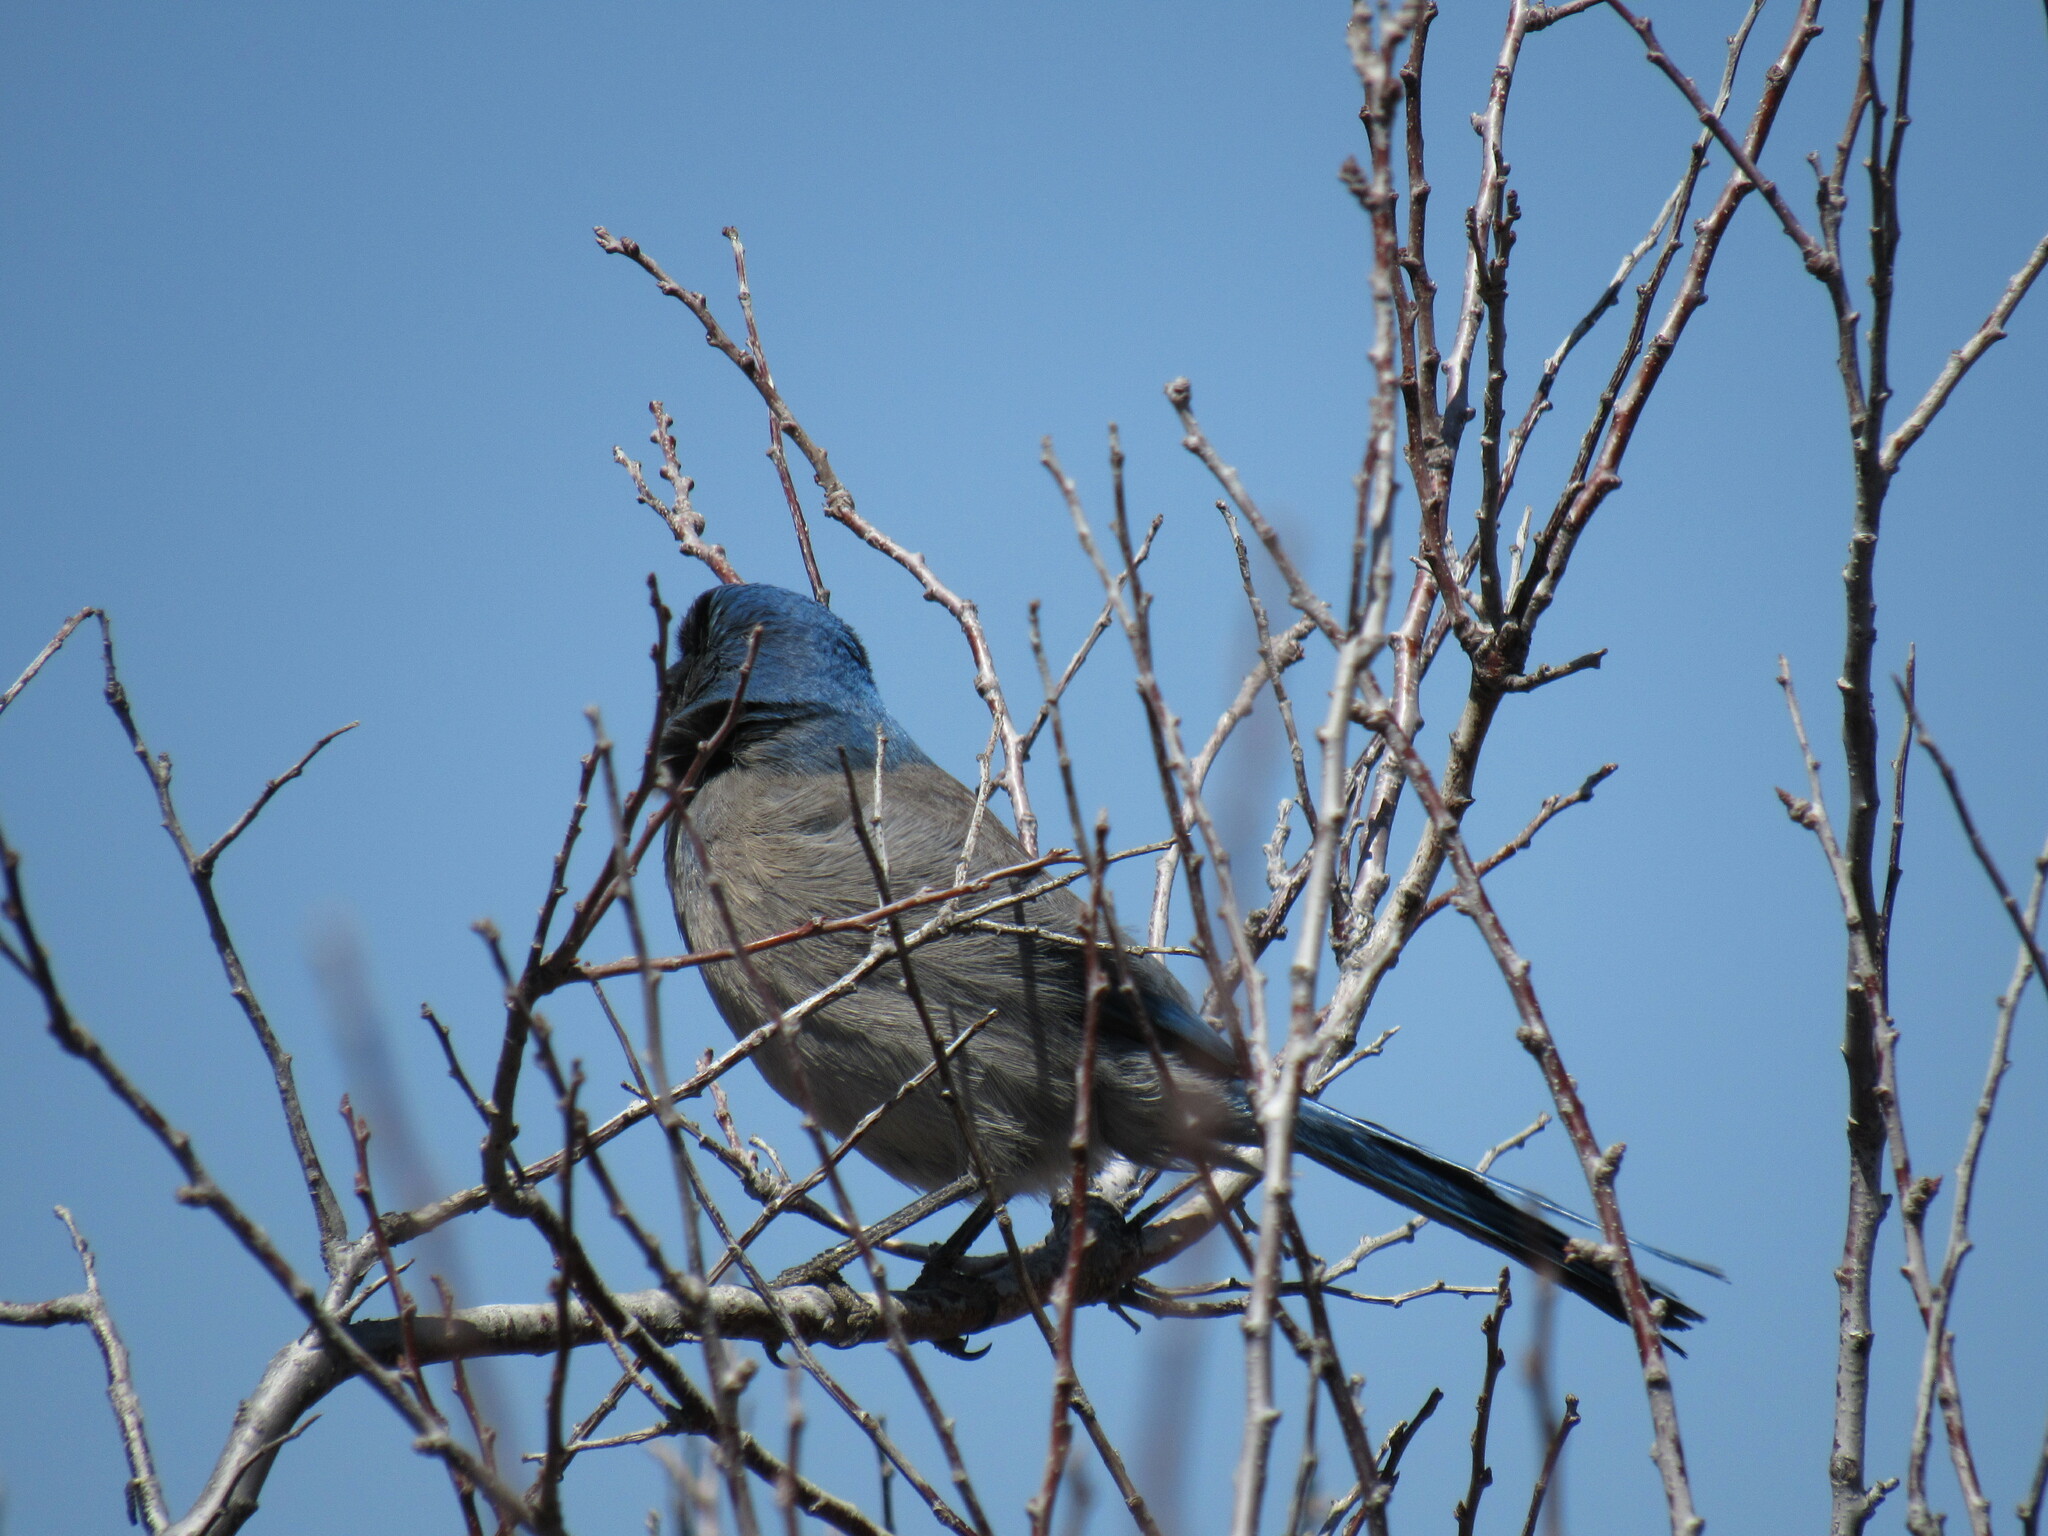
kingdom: Animalia
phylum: Chordata
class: Aves
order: Passeriformes
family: Corvidae
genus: Aphelocoma
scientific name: Aphelocoma woodhouseii
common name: Woodhouse's scrub-jay
